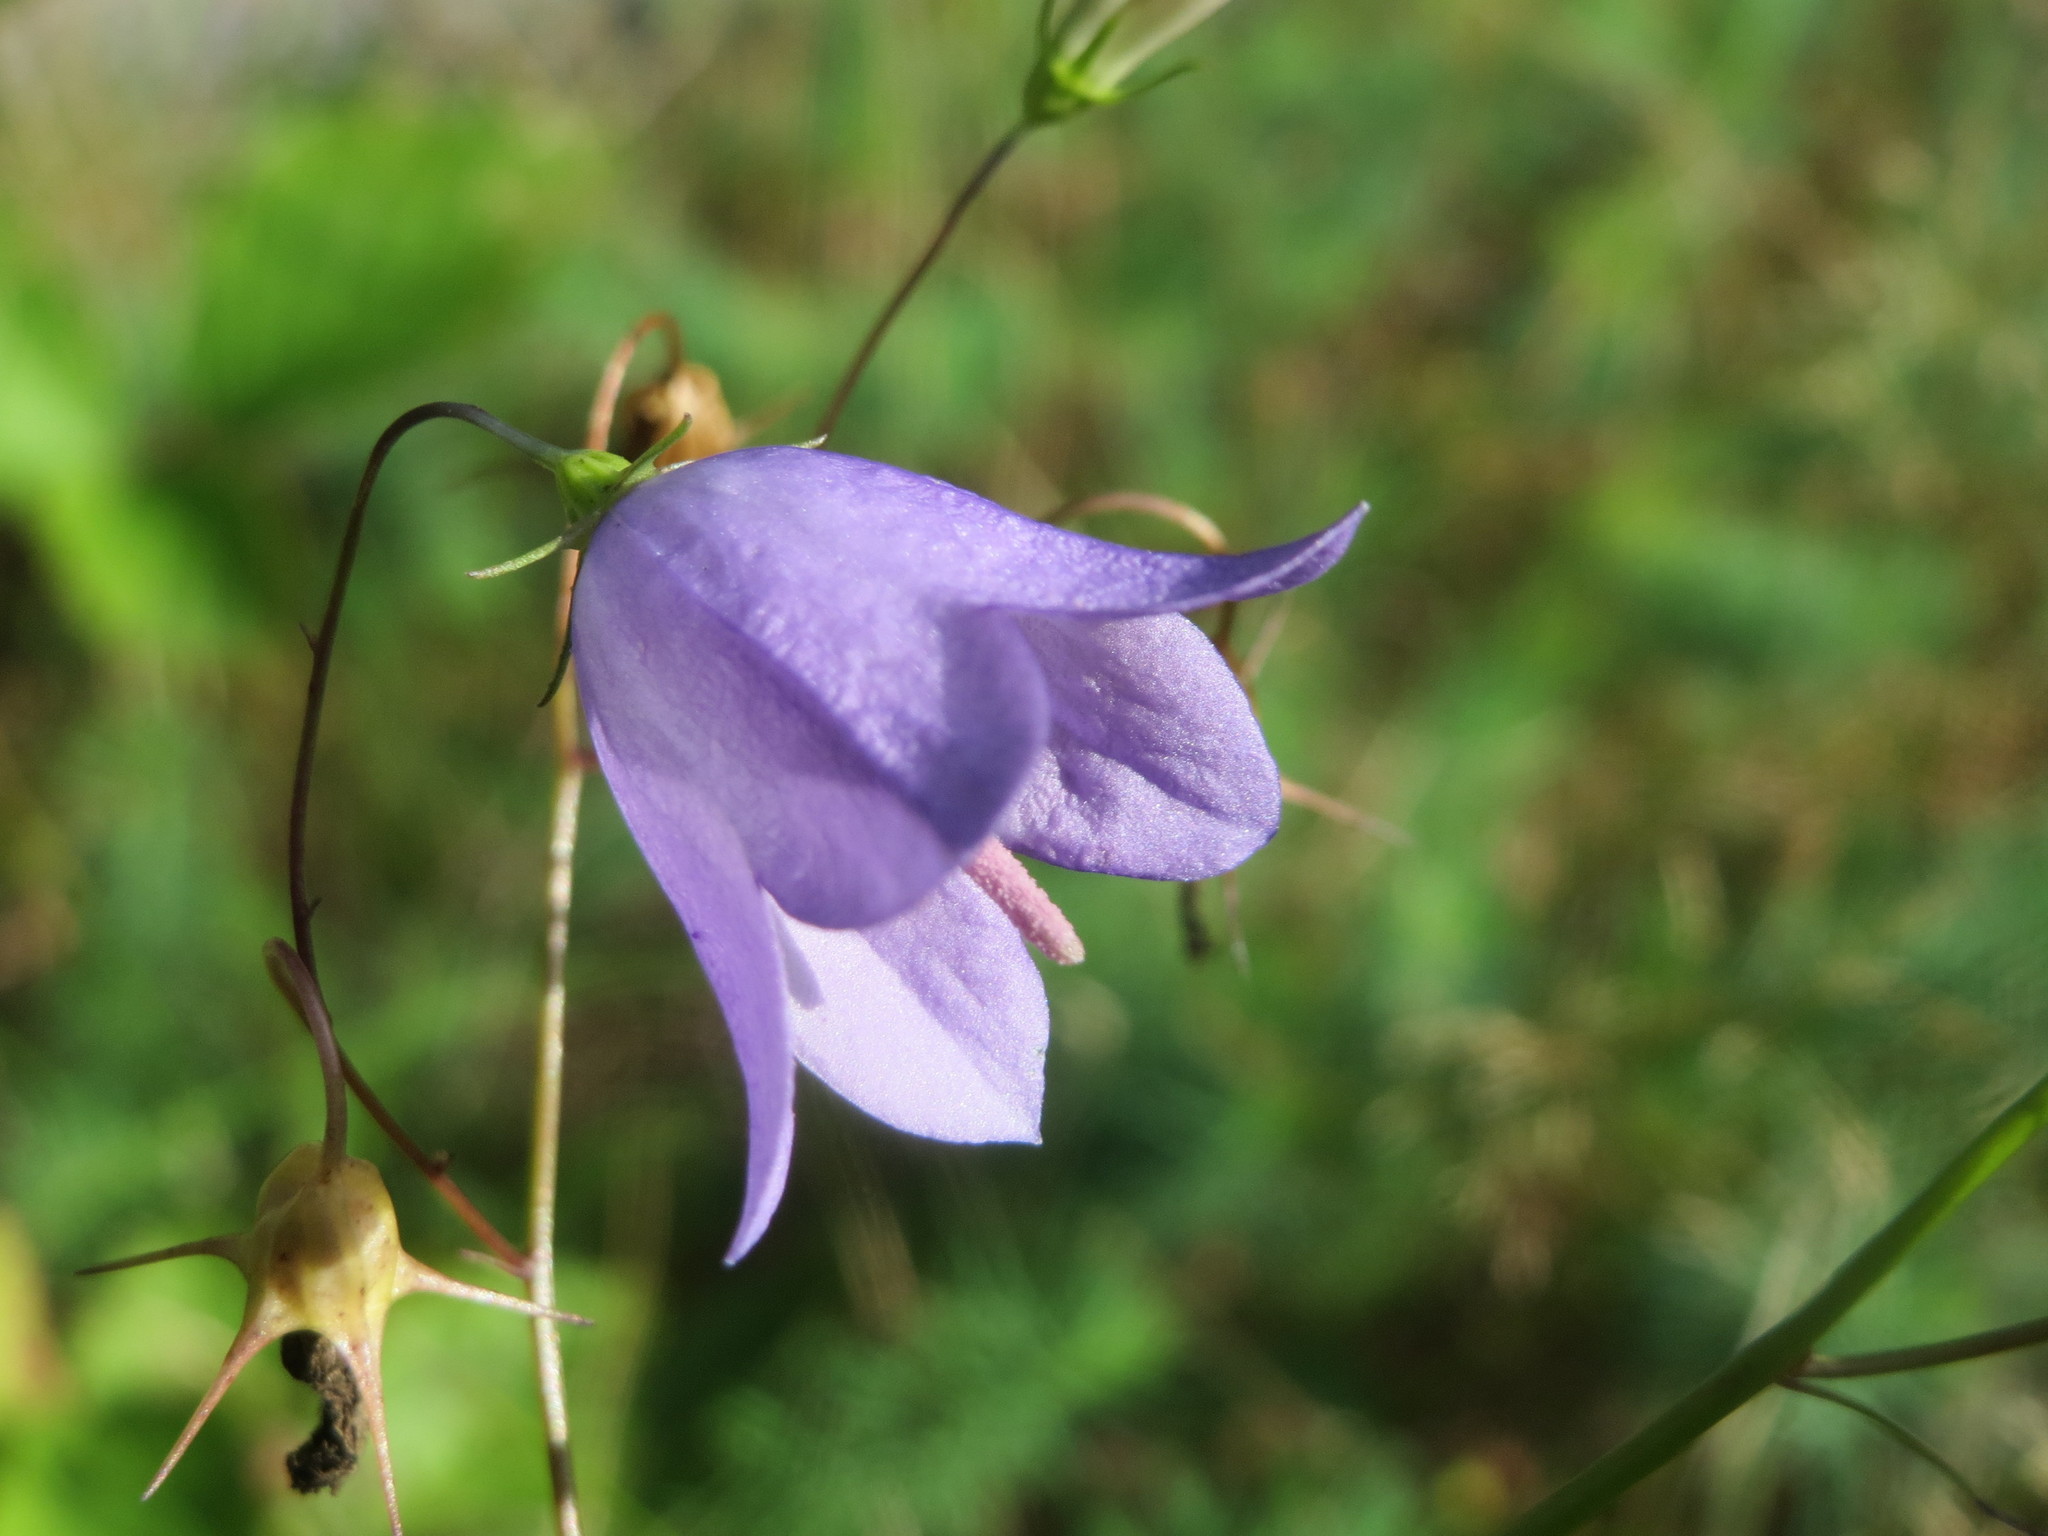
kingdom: Plantae
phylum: Tracheophyta
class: Magnoliopsida
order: Asterales
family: Campanulaceae
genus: Campanula
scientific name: Campanula rotundifolia
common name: Harebell
